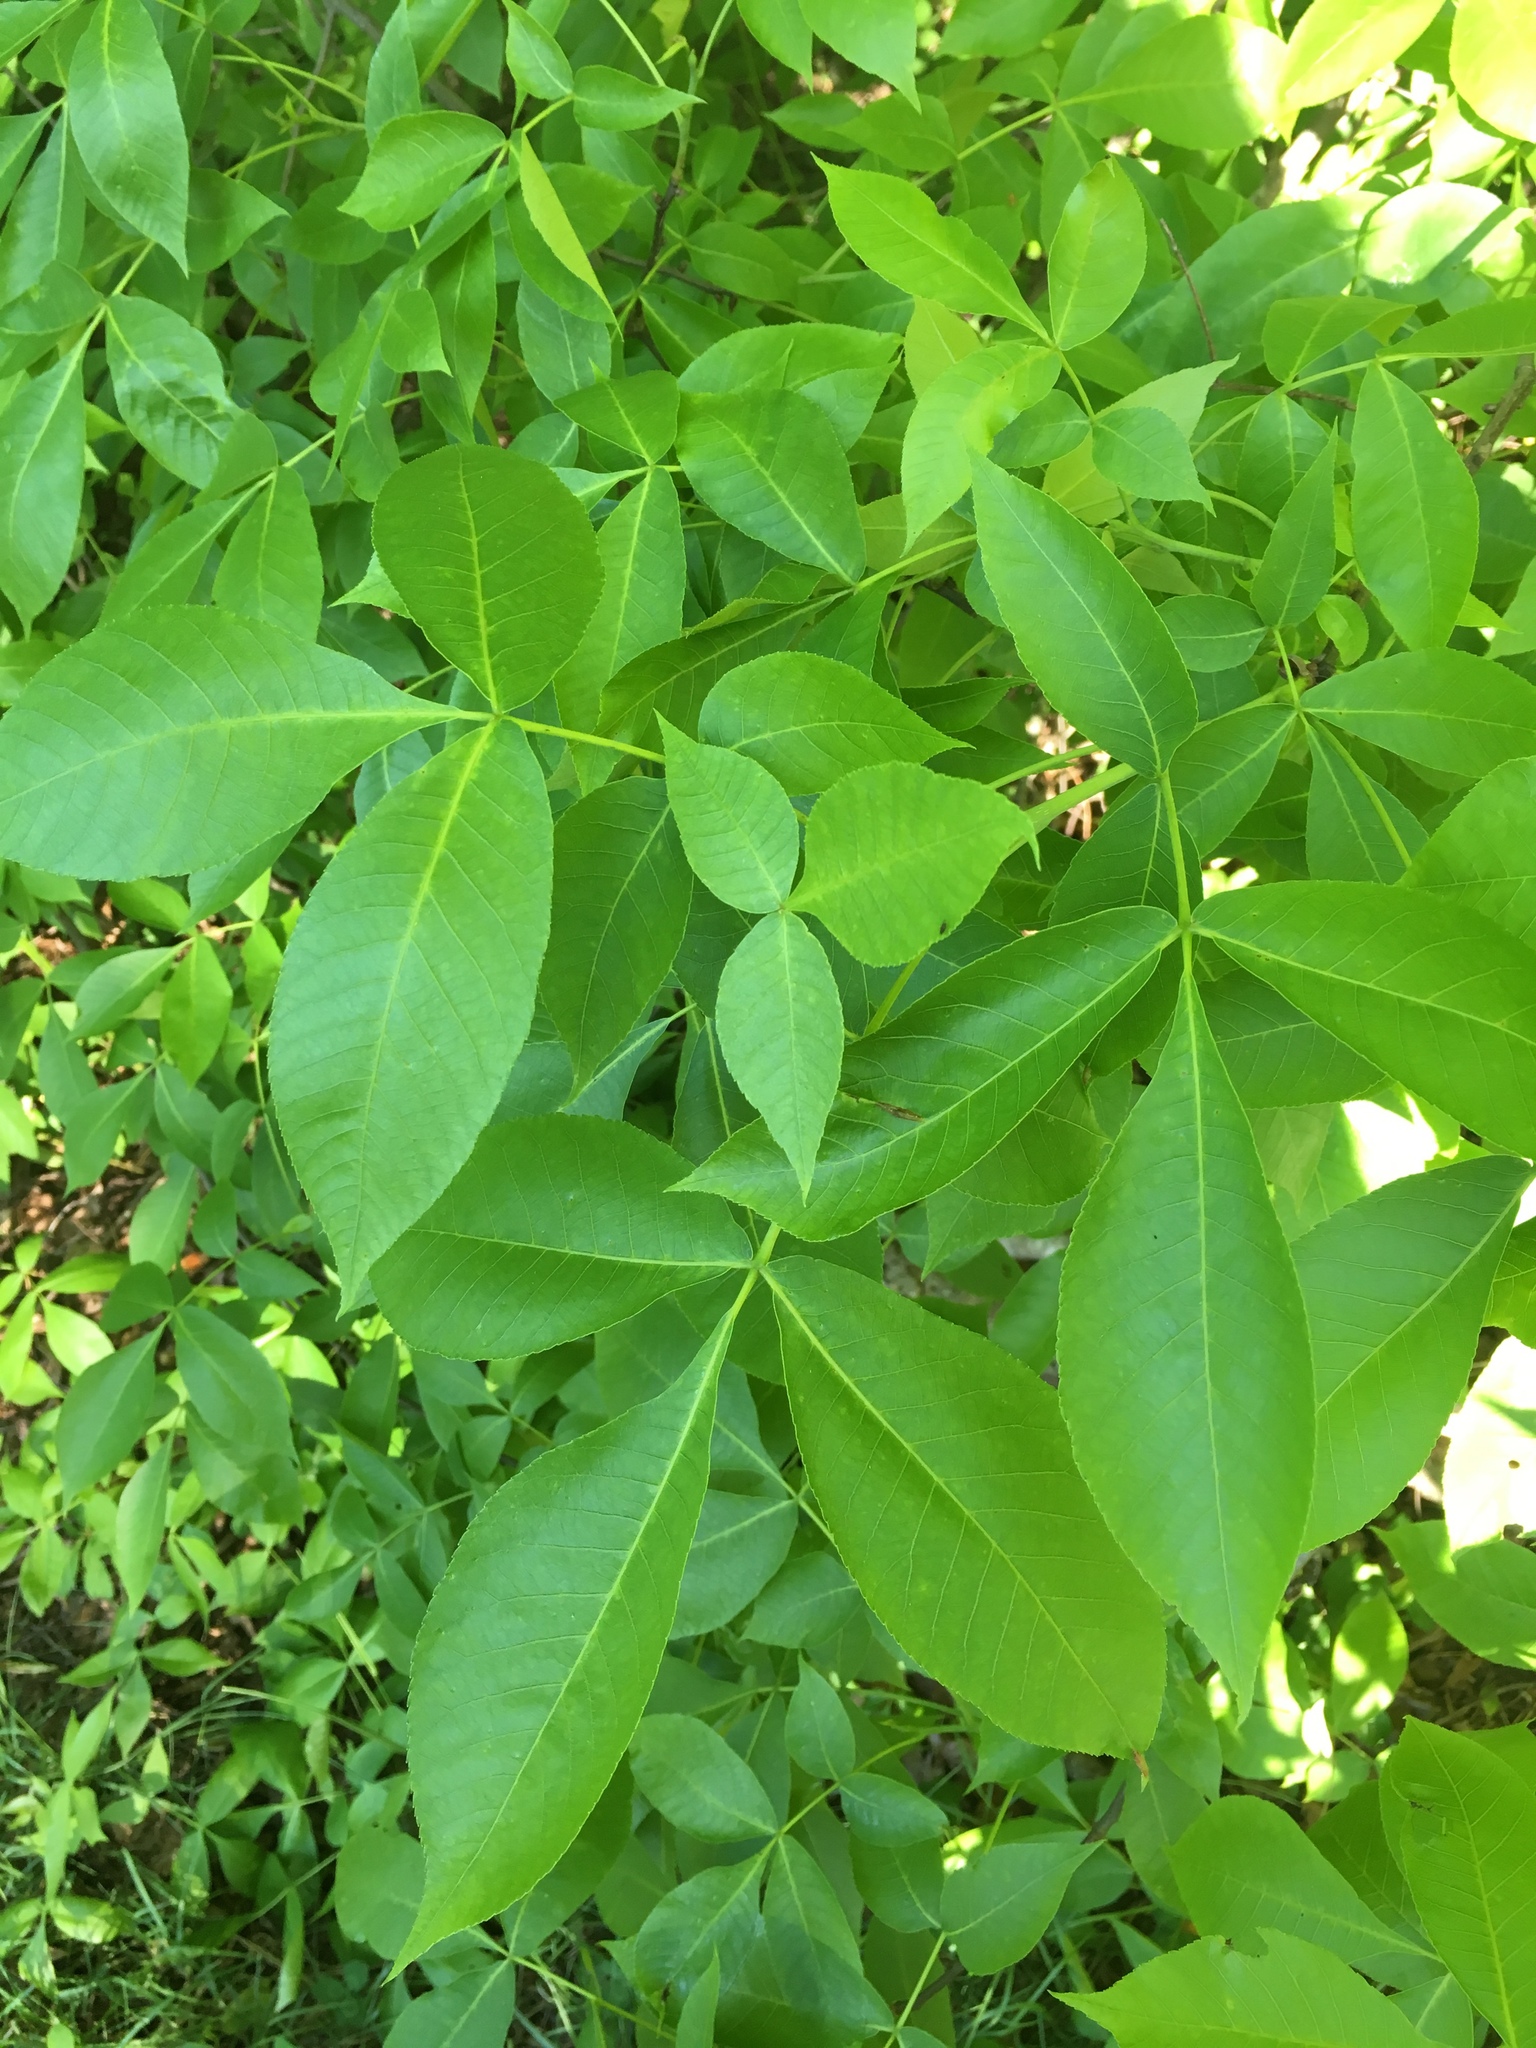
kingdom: Plantae
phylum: Tracheophyta
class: Magnoliopsida
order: Fagales
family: Juglandaceae
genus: Carya
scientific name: Carya glabra
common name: Pignut hickory
